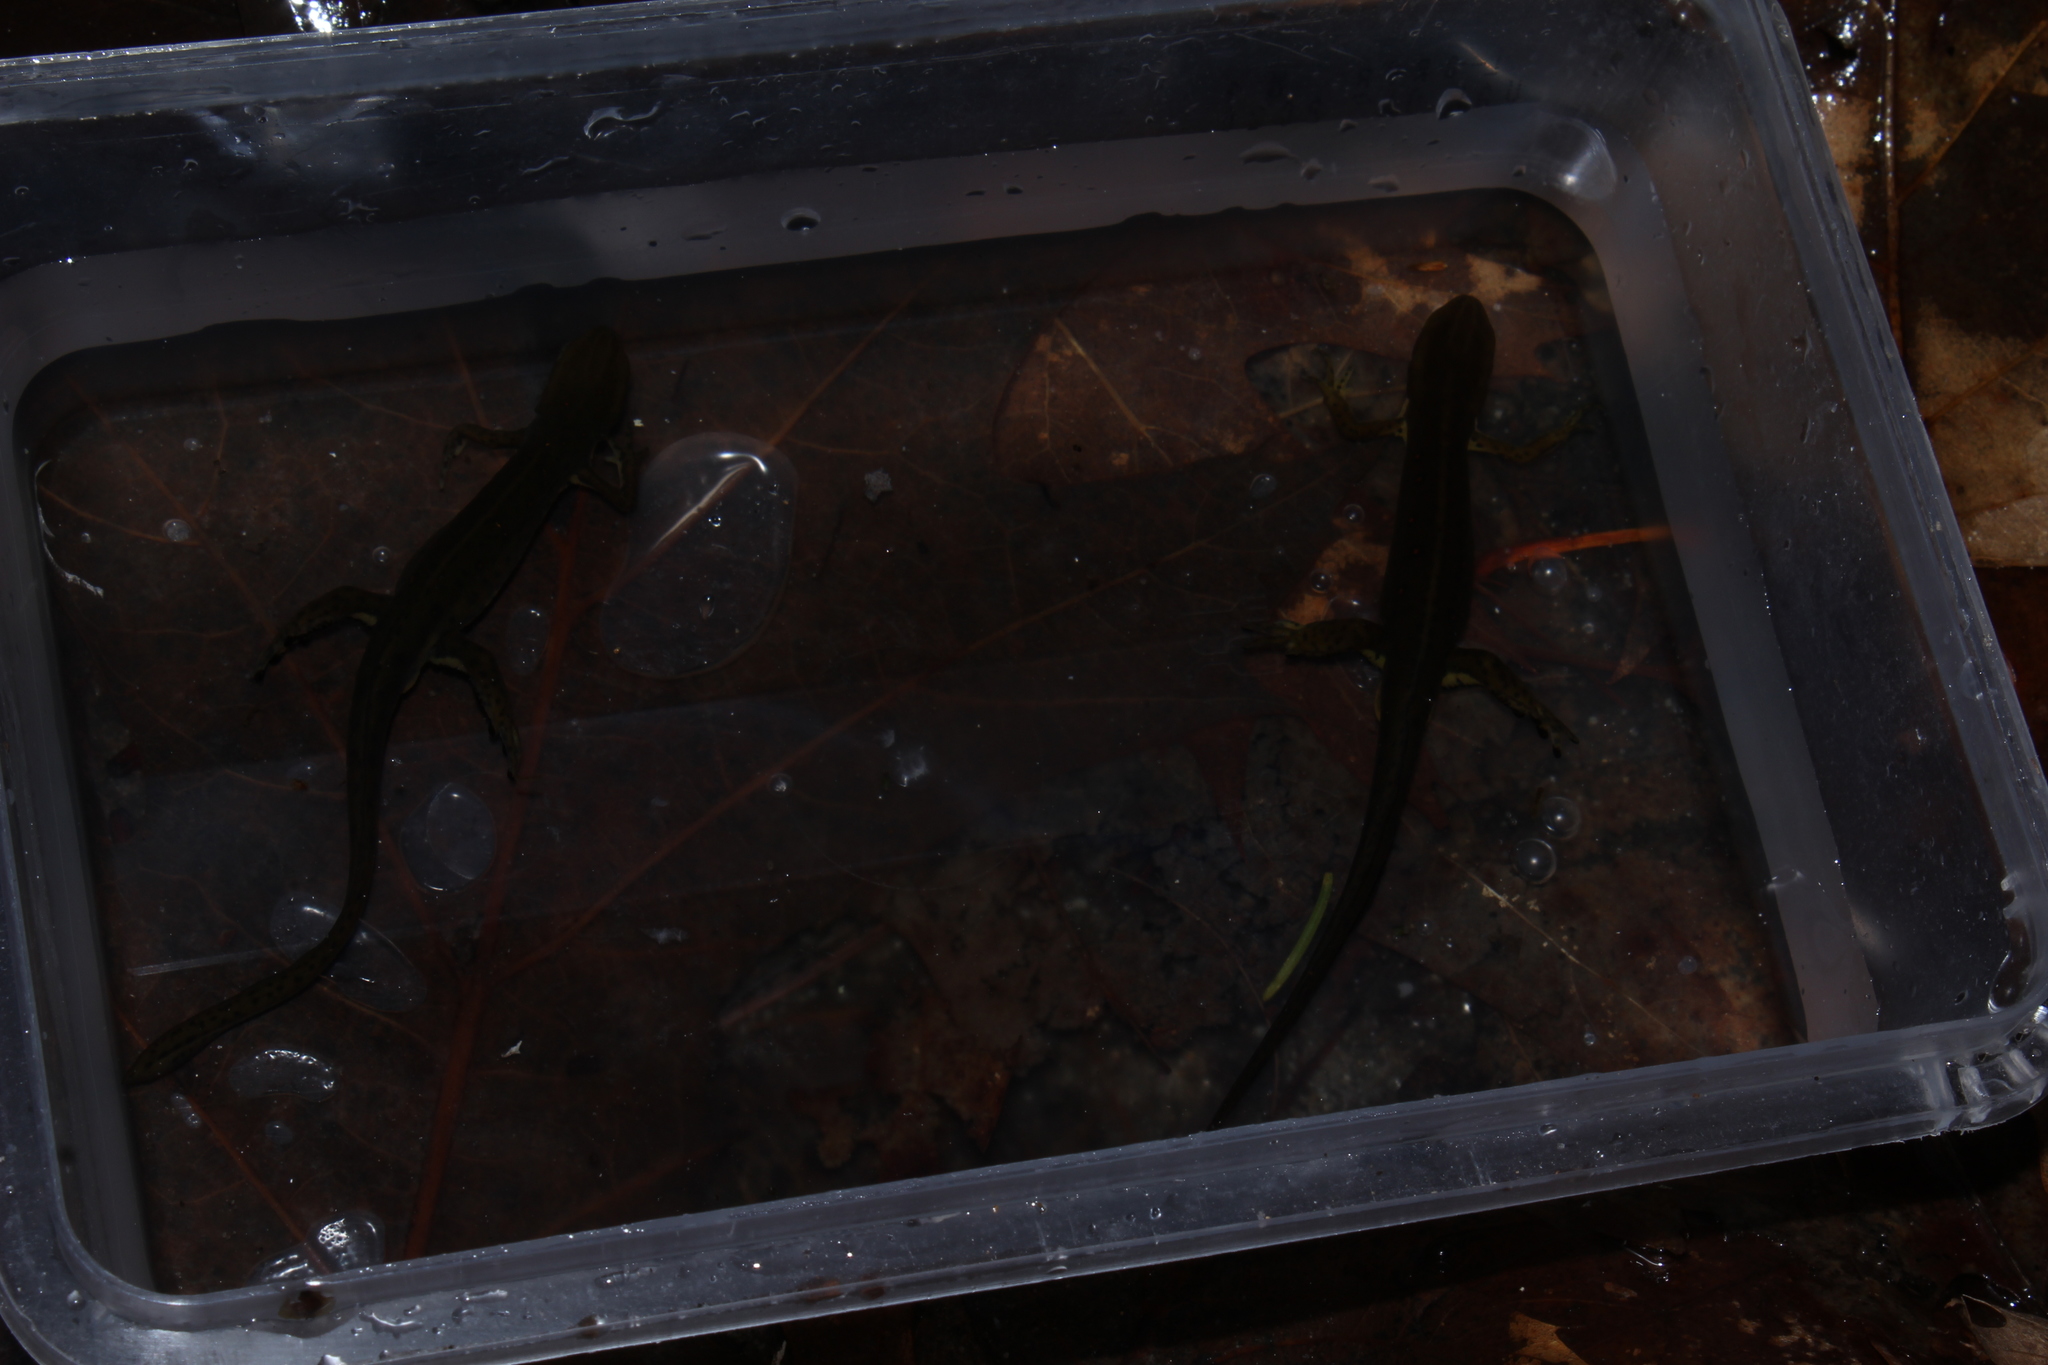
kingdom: Animalia
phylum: Chordata
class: Amphibia
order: Caudata
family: Salamandridae
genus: Notophthalmus
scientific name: Notophthalmus viridescens
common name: Eastern newt
